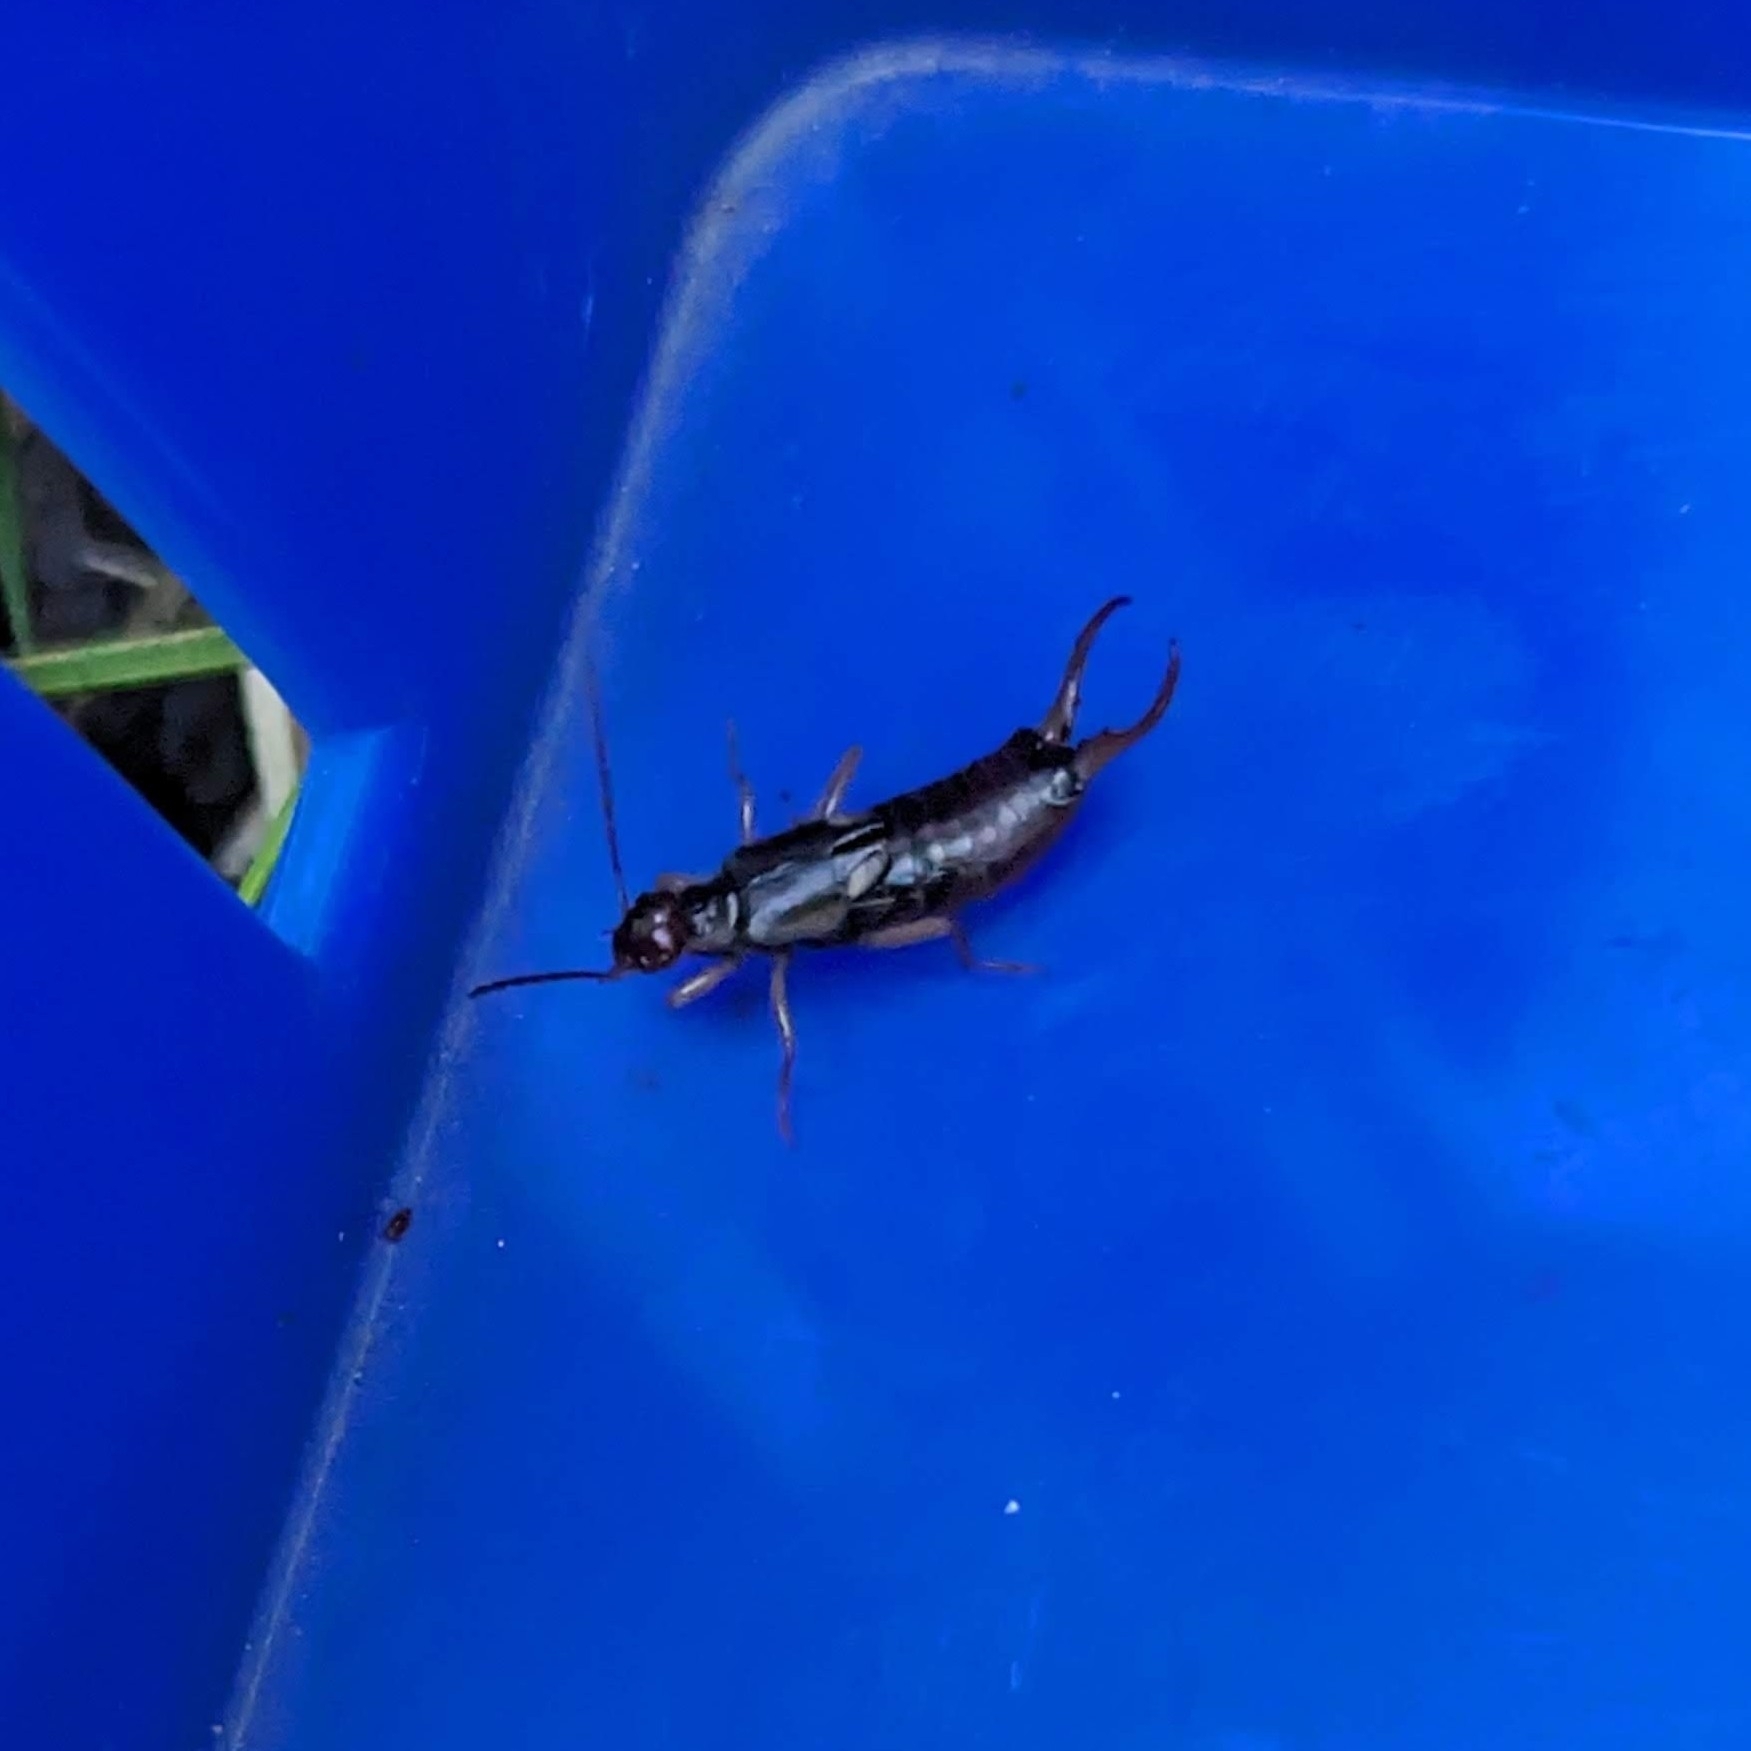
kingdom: Animalia
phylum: Arthropoda
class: Insecta
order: Dermaptera
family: Forficulidae
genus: Forficula
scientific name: Forficula auricularia
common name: European earwig
